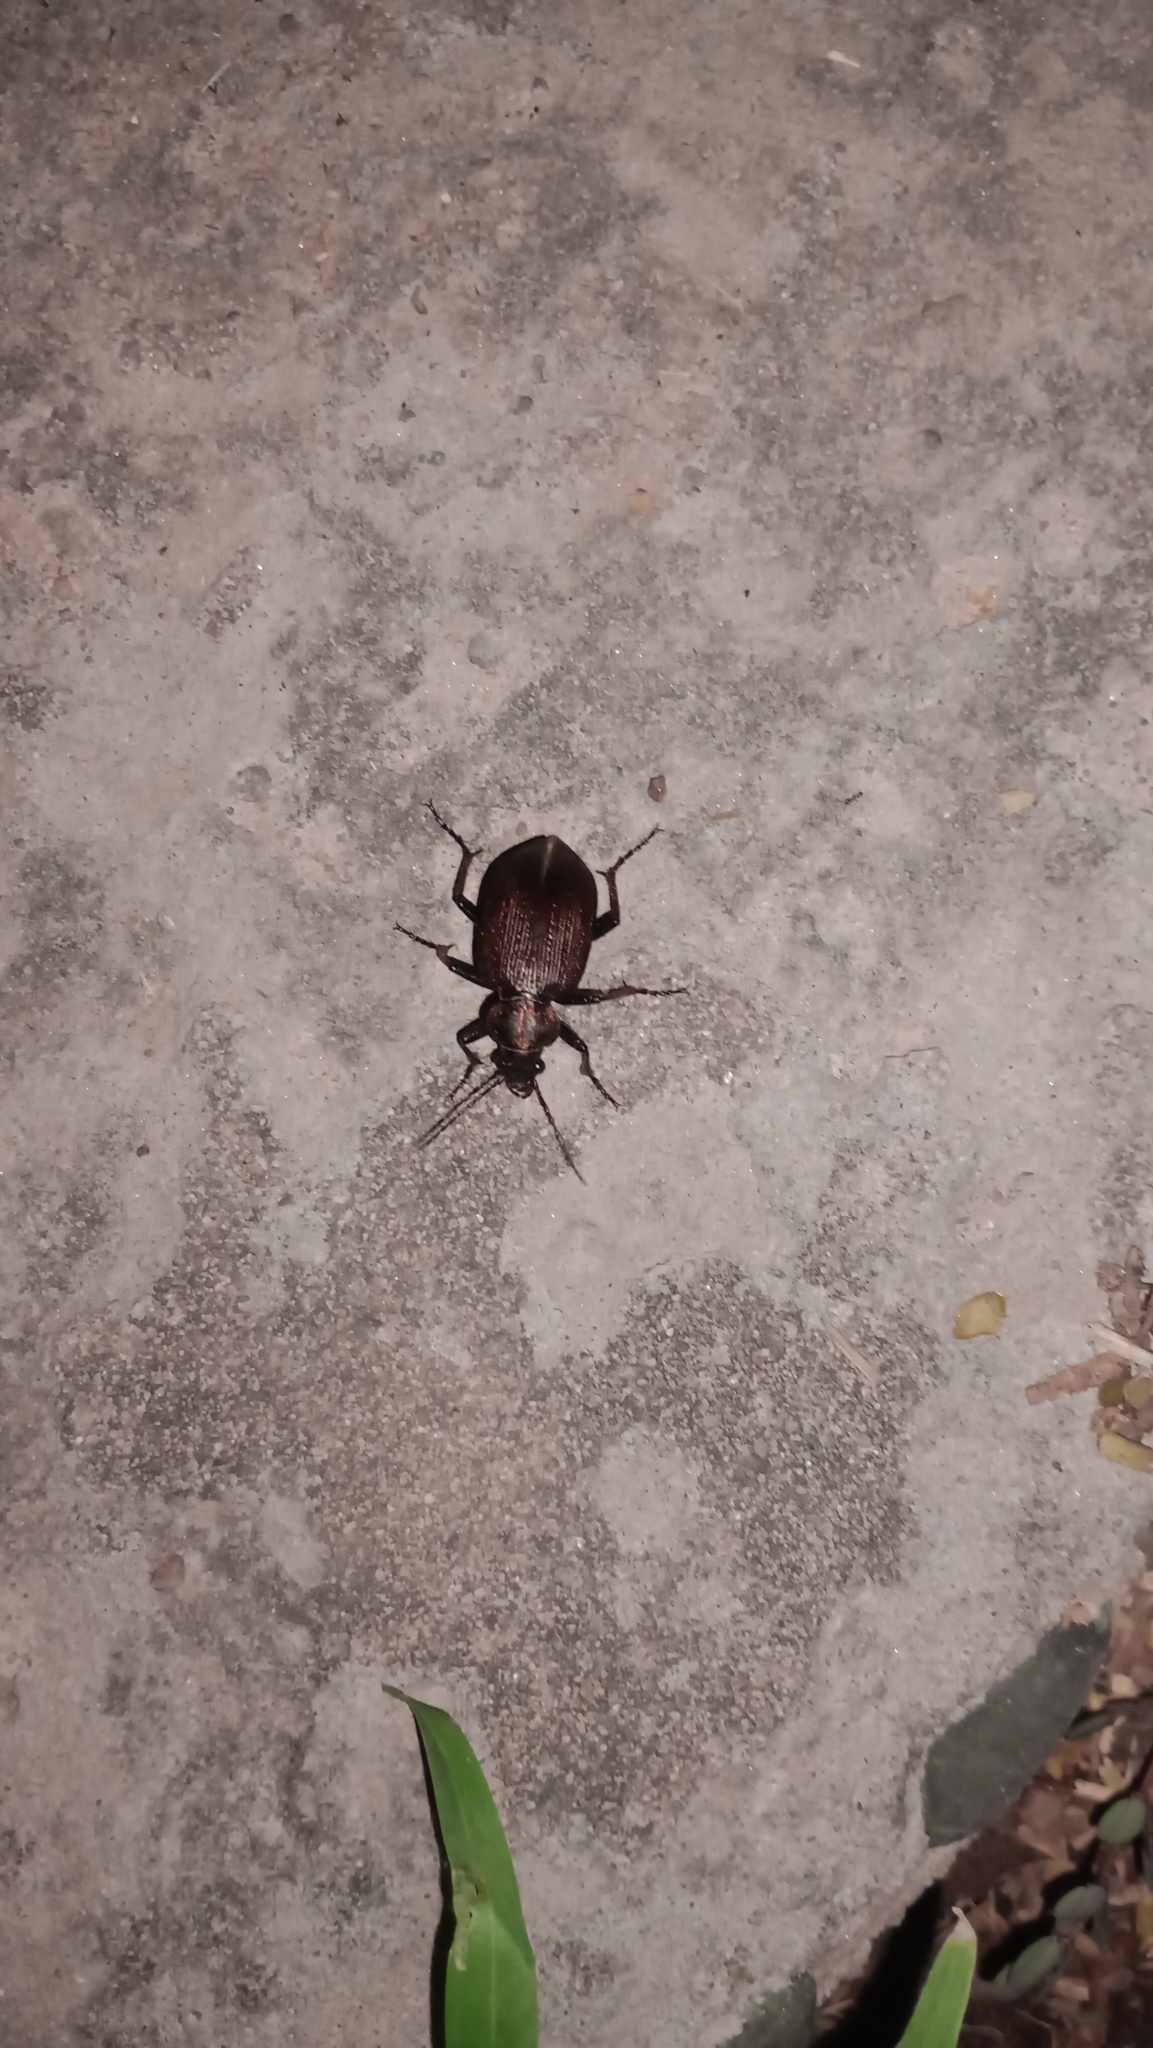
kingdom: Animalia
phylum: Arthropoda
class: Insecta
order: Coleoptera
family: Carabidae
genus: Calosoma
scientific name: Calosoma argentinense
